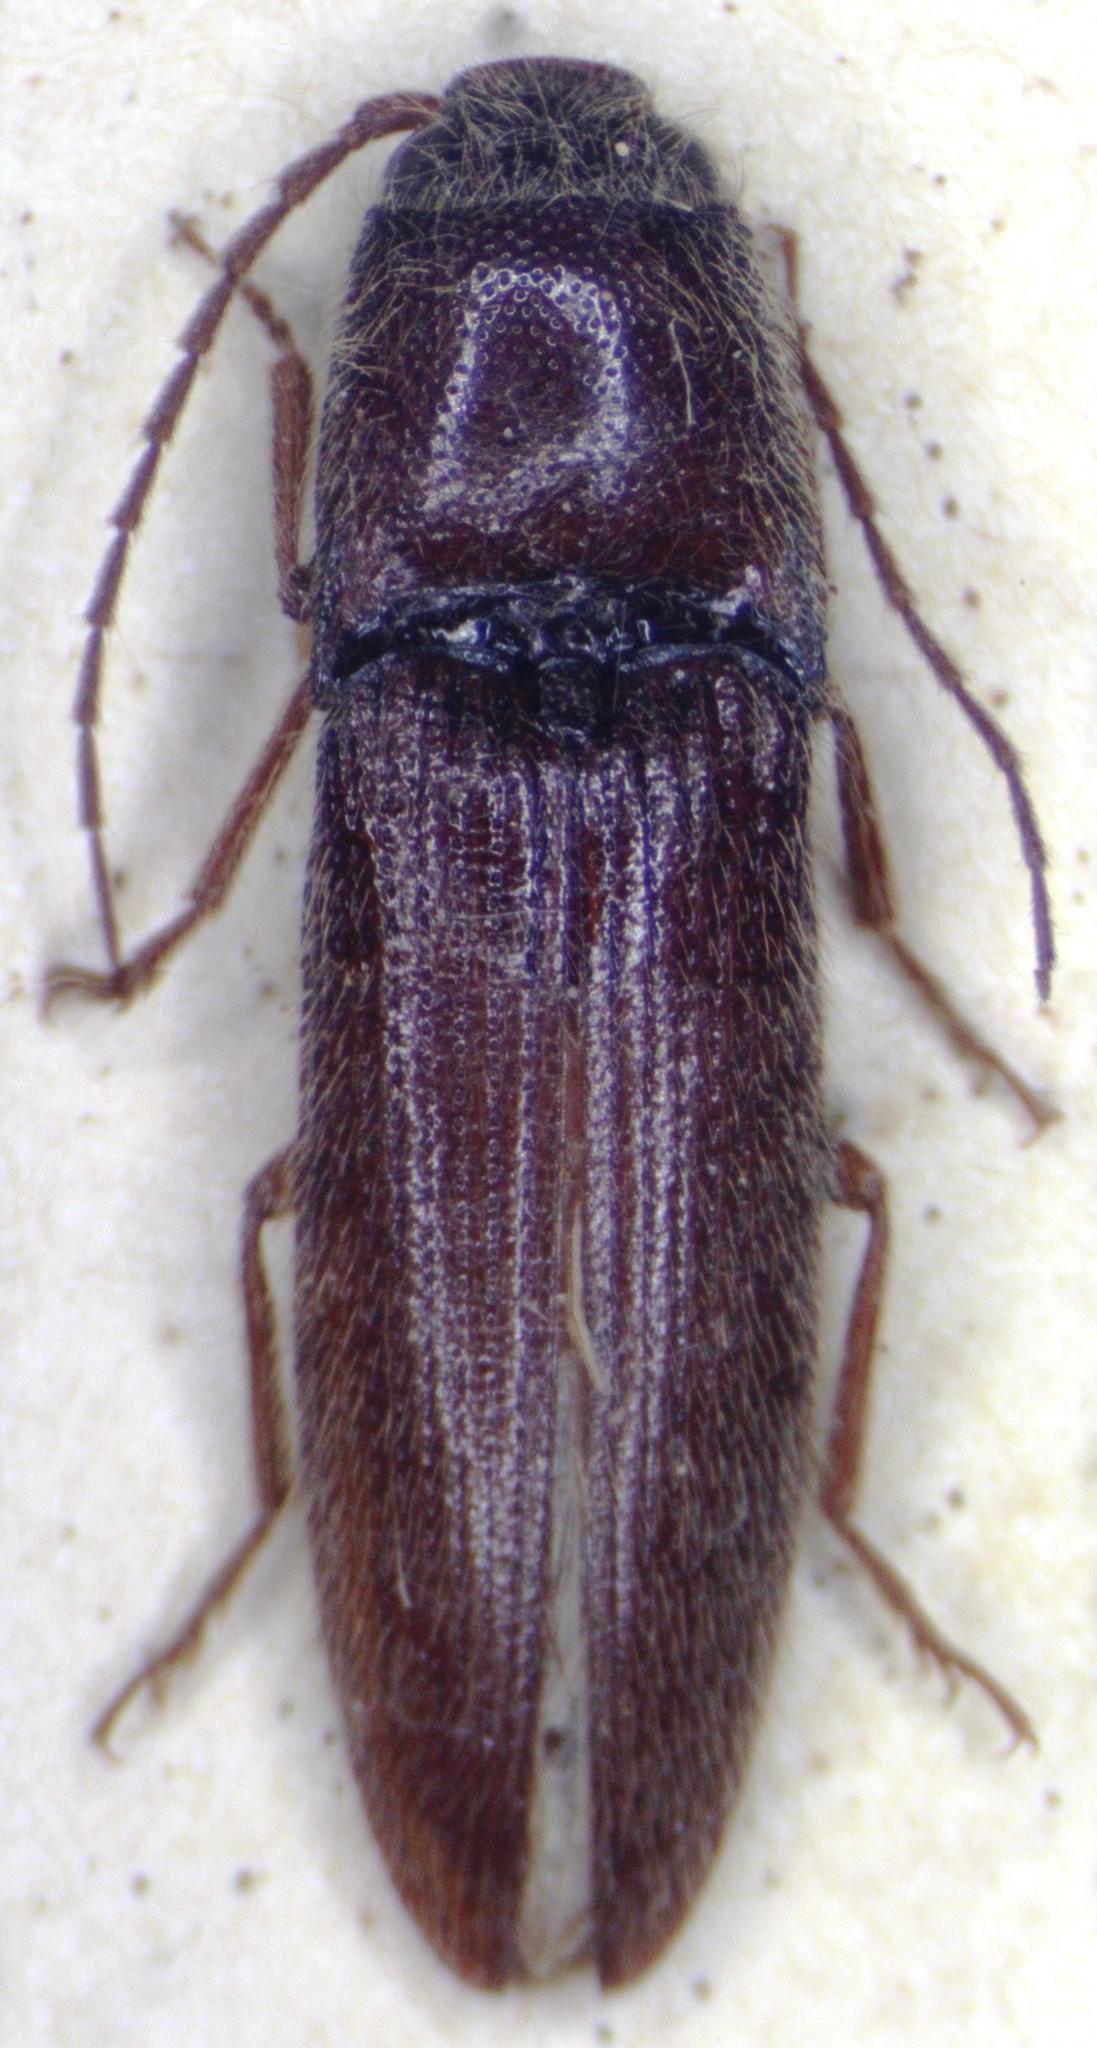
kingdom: Animalia
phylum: Arthropoda
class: Insecta
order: Coleoptera
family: Elateridae
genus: Dipropus
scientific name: Dipropus
